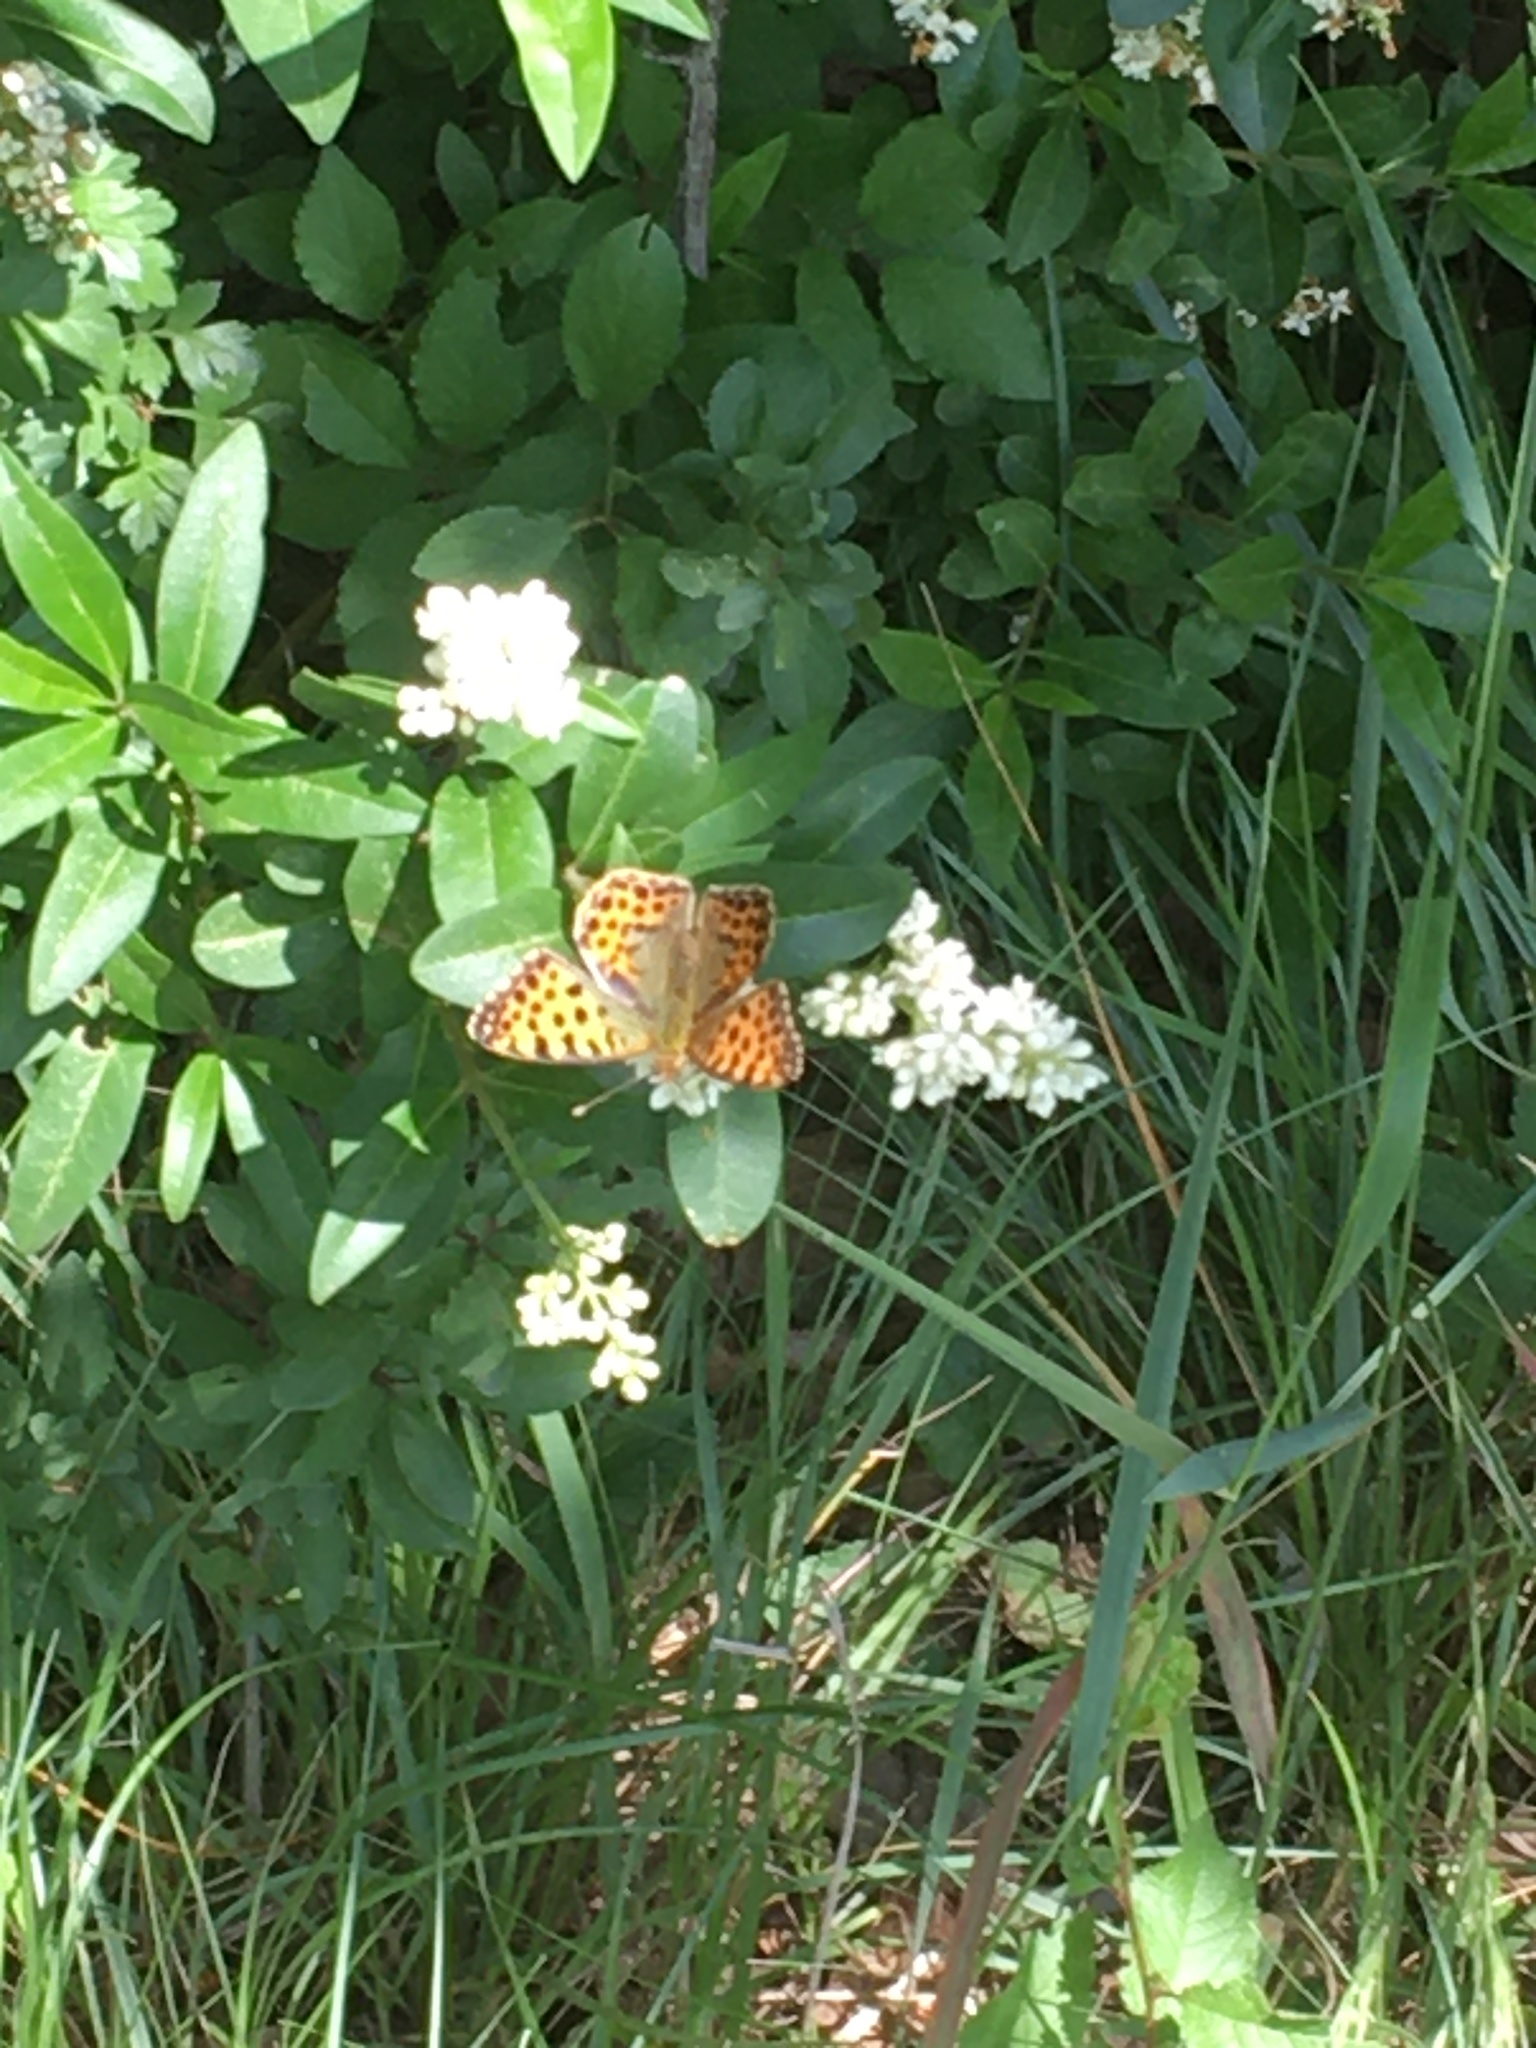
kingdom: Animalia
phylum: Arthropoda
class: Insecta
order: Lepidoptera
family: Nymphalidae
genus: Issoria
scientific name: Issoria lathonia
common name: Queen of spain fritillary
